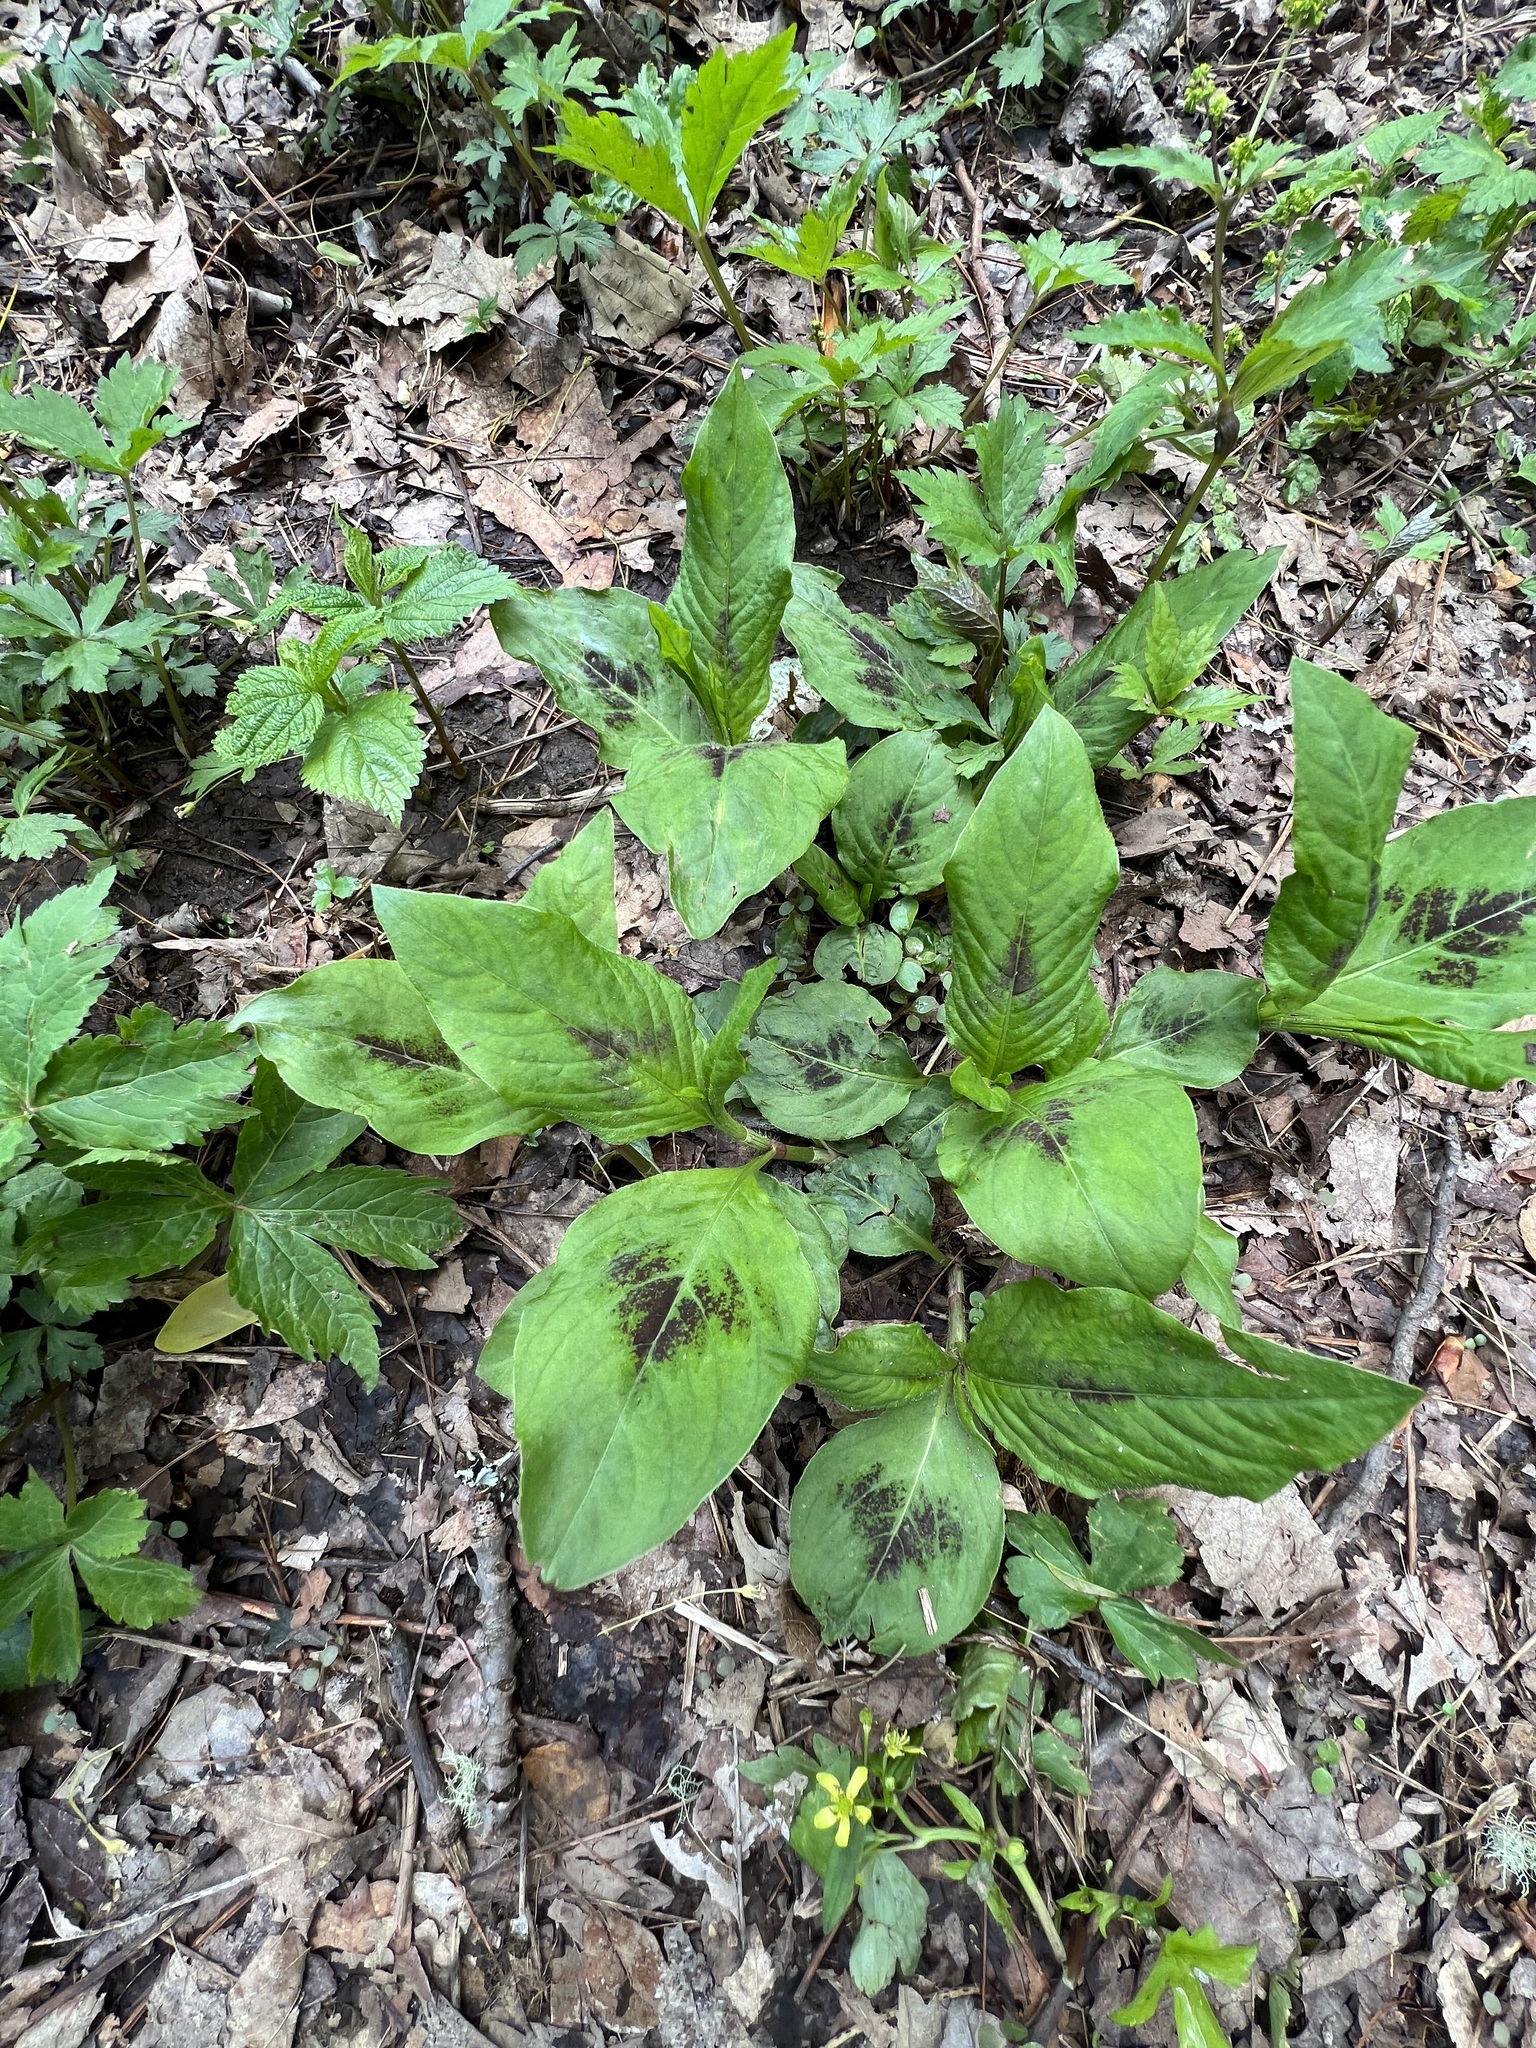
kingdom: Plantae
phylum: Tracheophyta
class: Magnoliopsida
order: Caryophyllales
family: Polygonaceae
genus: Persicaria
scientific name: Persicaria virginiana
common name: Jumpseed
